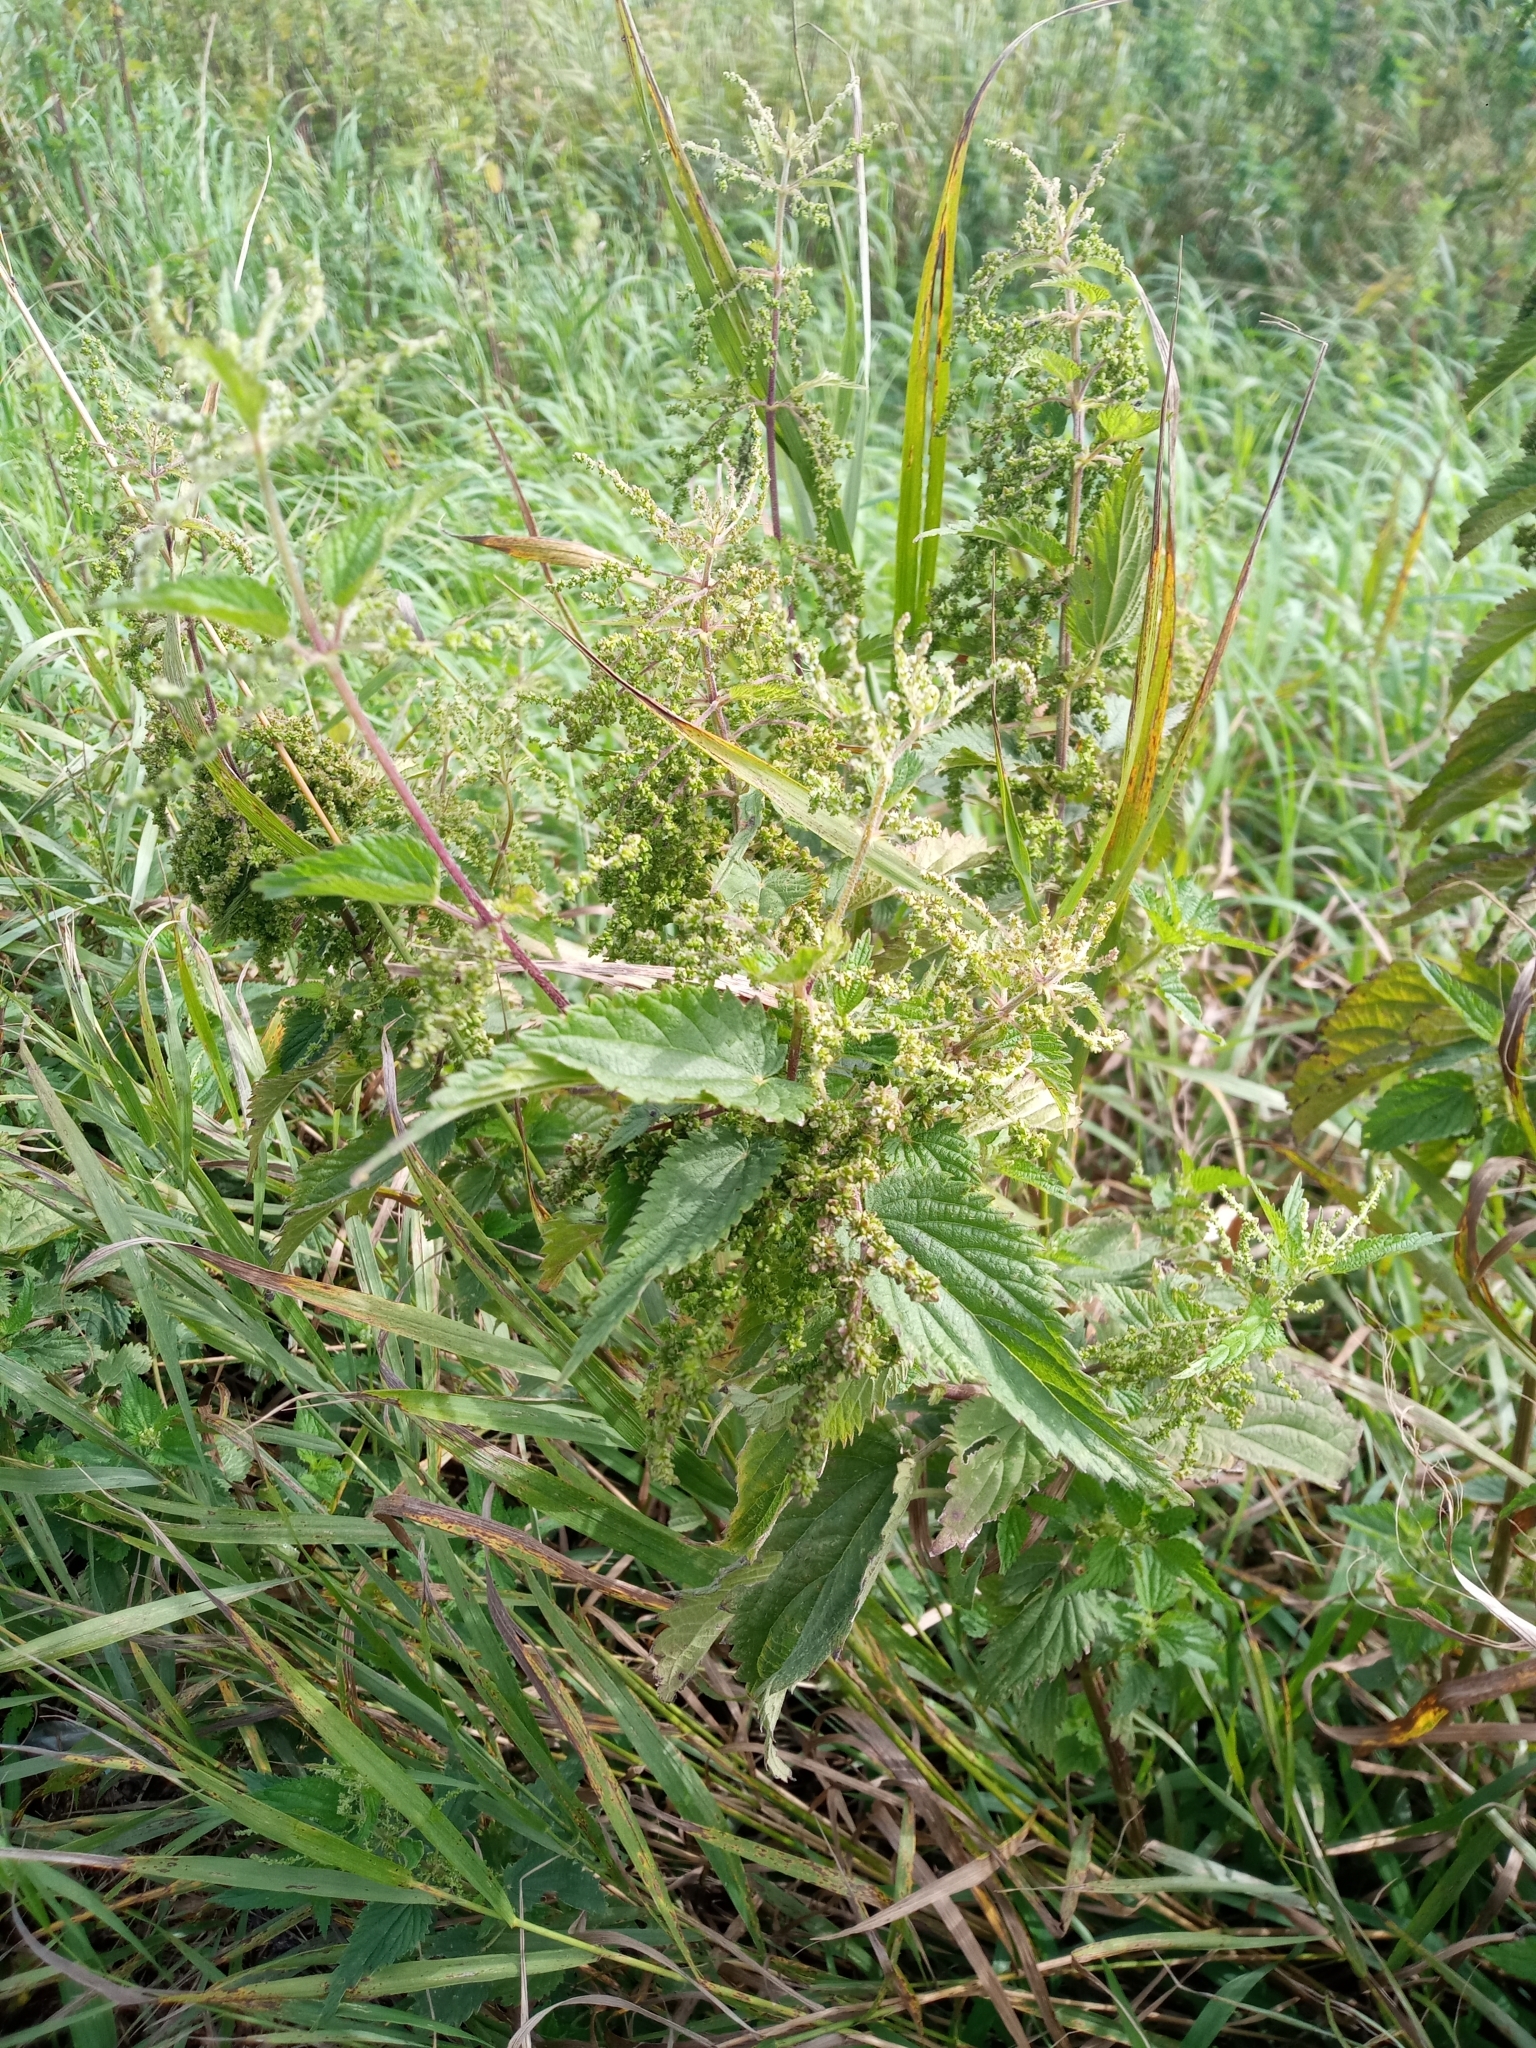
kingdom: Plantae
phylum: Tracheophyta
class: Magnoliopsida
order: Rosales
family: Urticaceae
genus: Urtica
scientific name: Urtica dioica
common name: Common nettle
